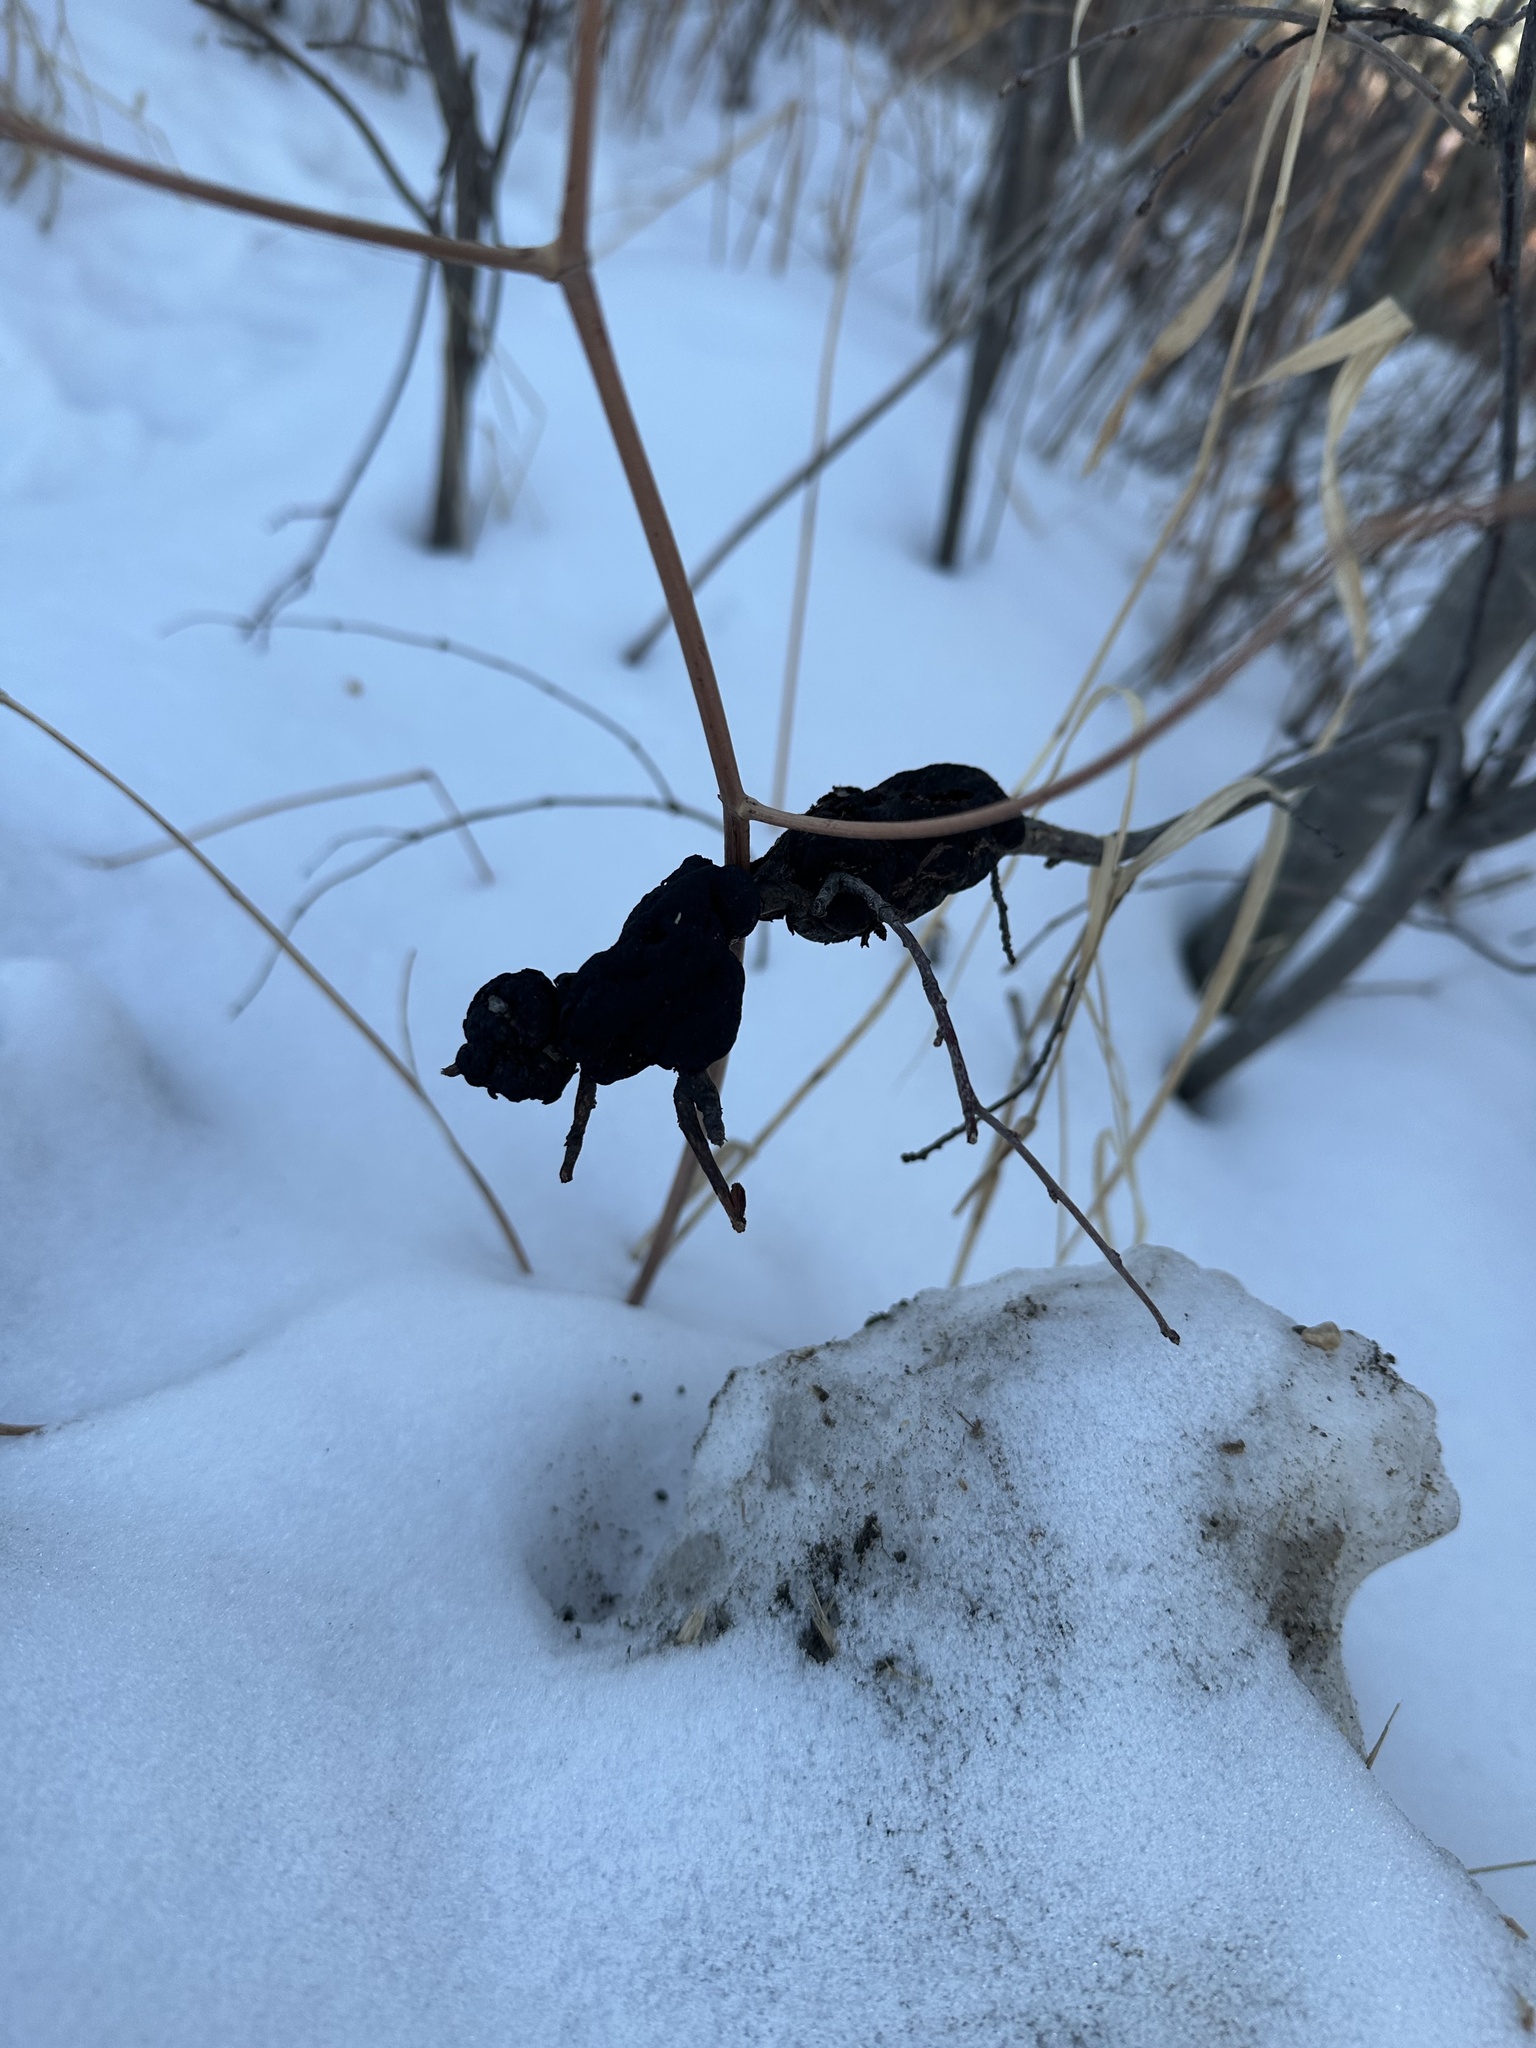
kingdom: Fungi
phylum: Ascomycota
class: Dothideomycetes
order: Venturiales
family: Venturiaceae
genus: Apiosporina
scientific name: Apiosporina morbosa
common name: Black knot
